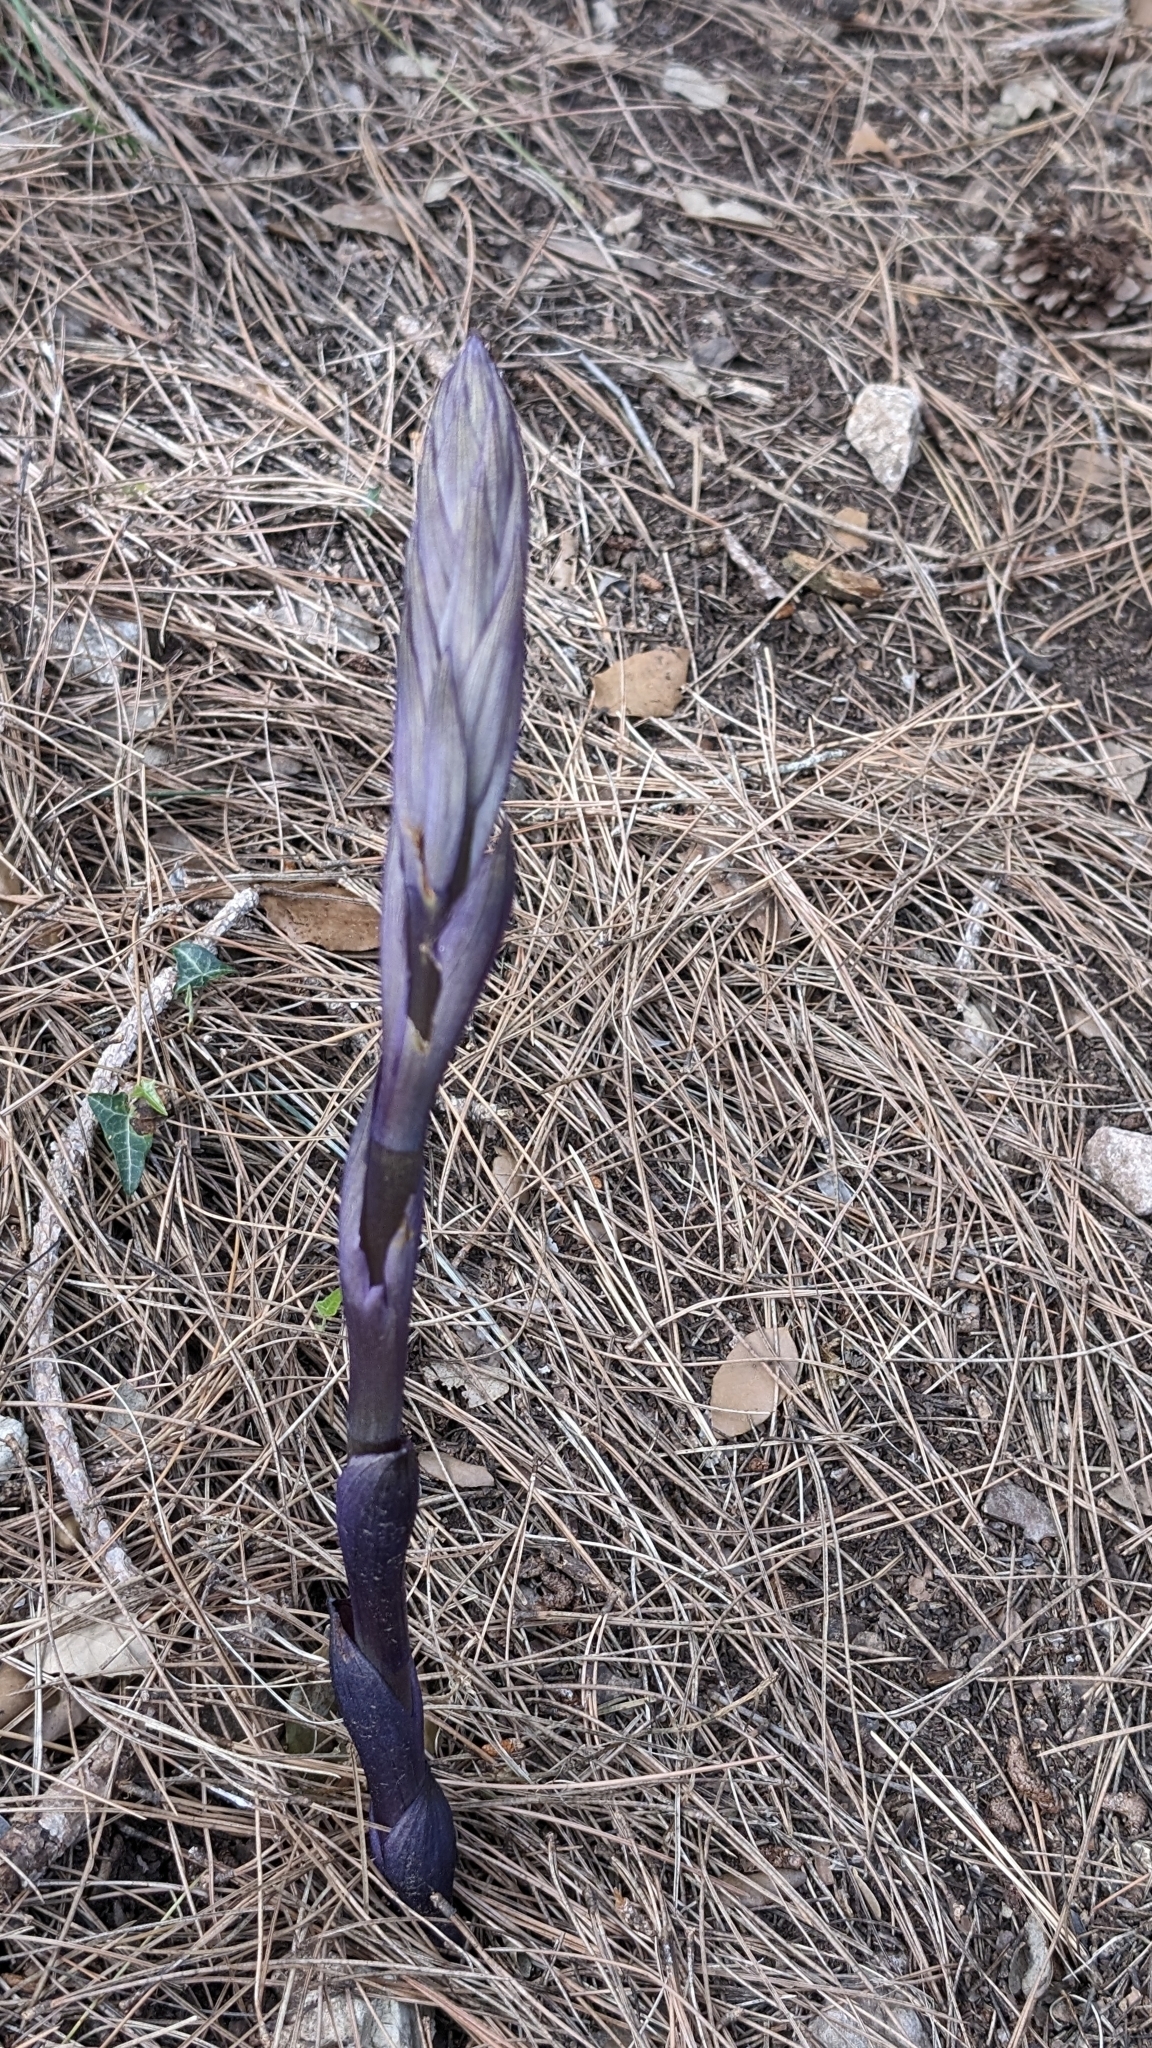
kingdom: Plantae
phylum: Tracheophyta
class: Liliopsida
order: Asparagales
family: Orchidaceae
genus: Limodorum
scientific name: Limodorum abortivum
